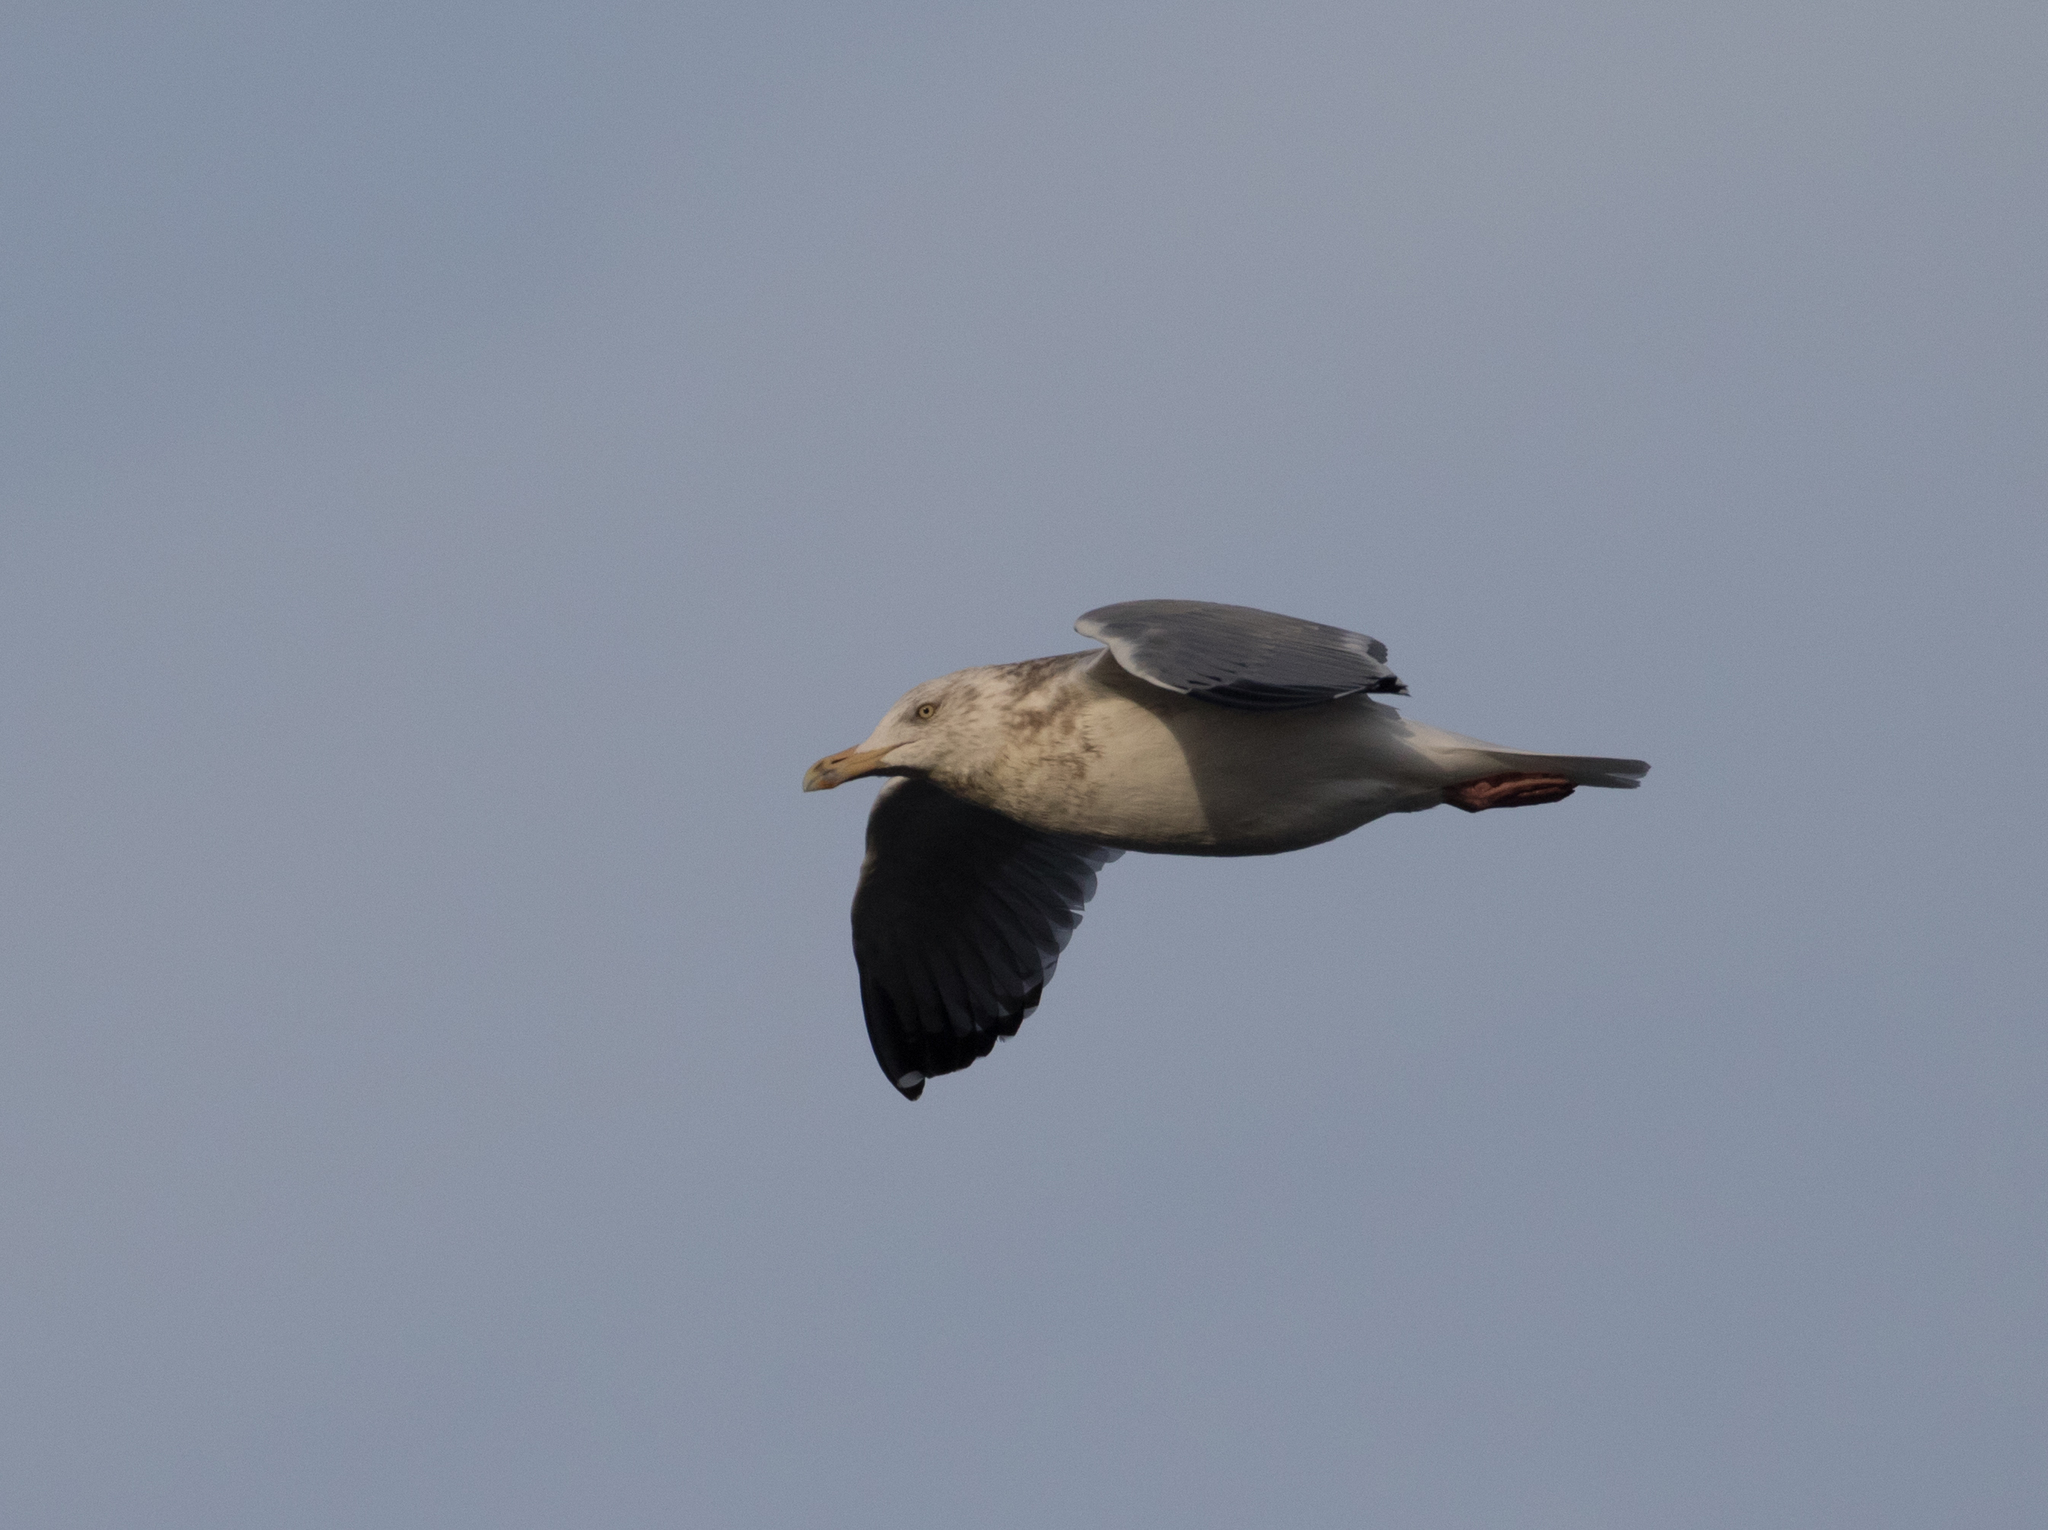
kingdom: Animalia
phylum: Chordata
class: Aves
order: Charadriiformes
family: Laridae
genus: Larus
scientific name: Larus argentatus
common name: Herring gull
